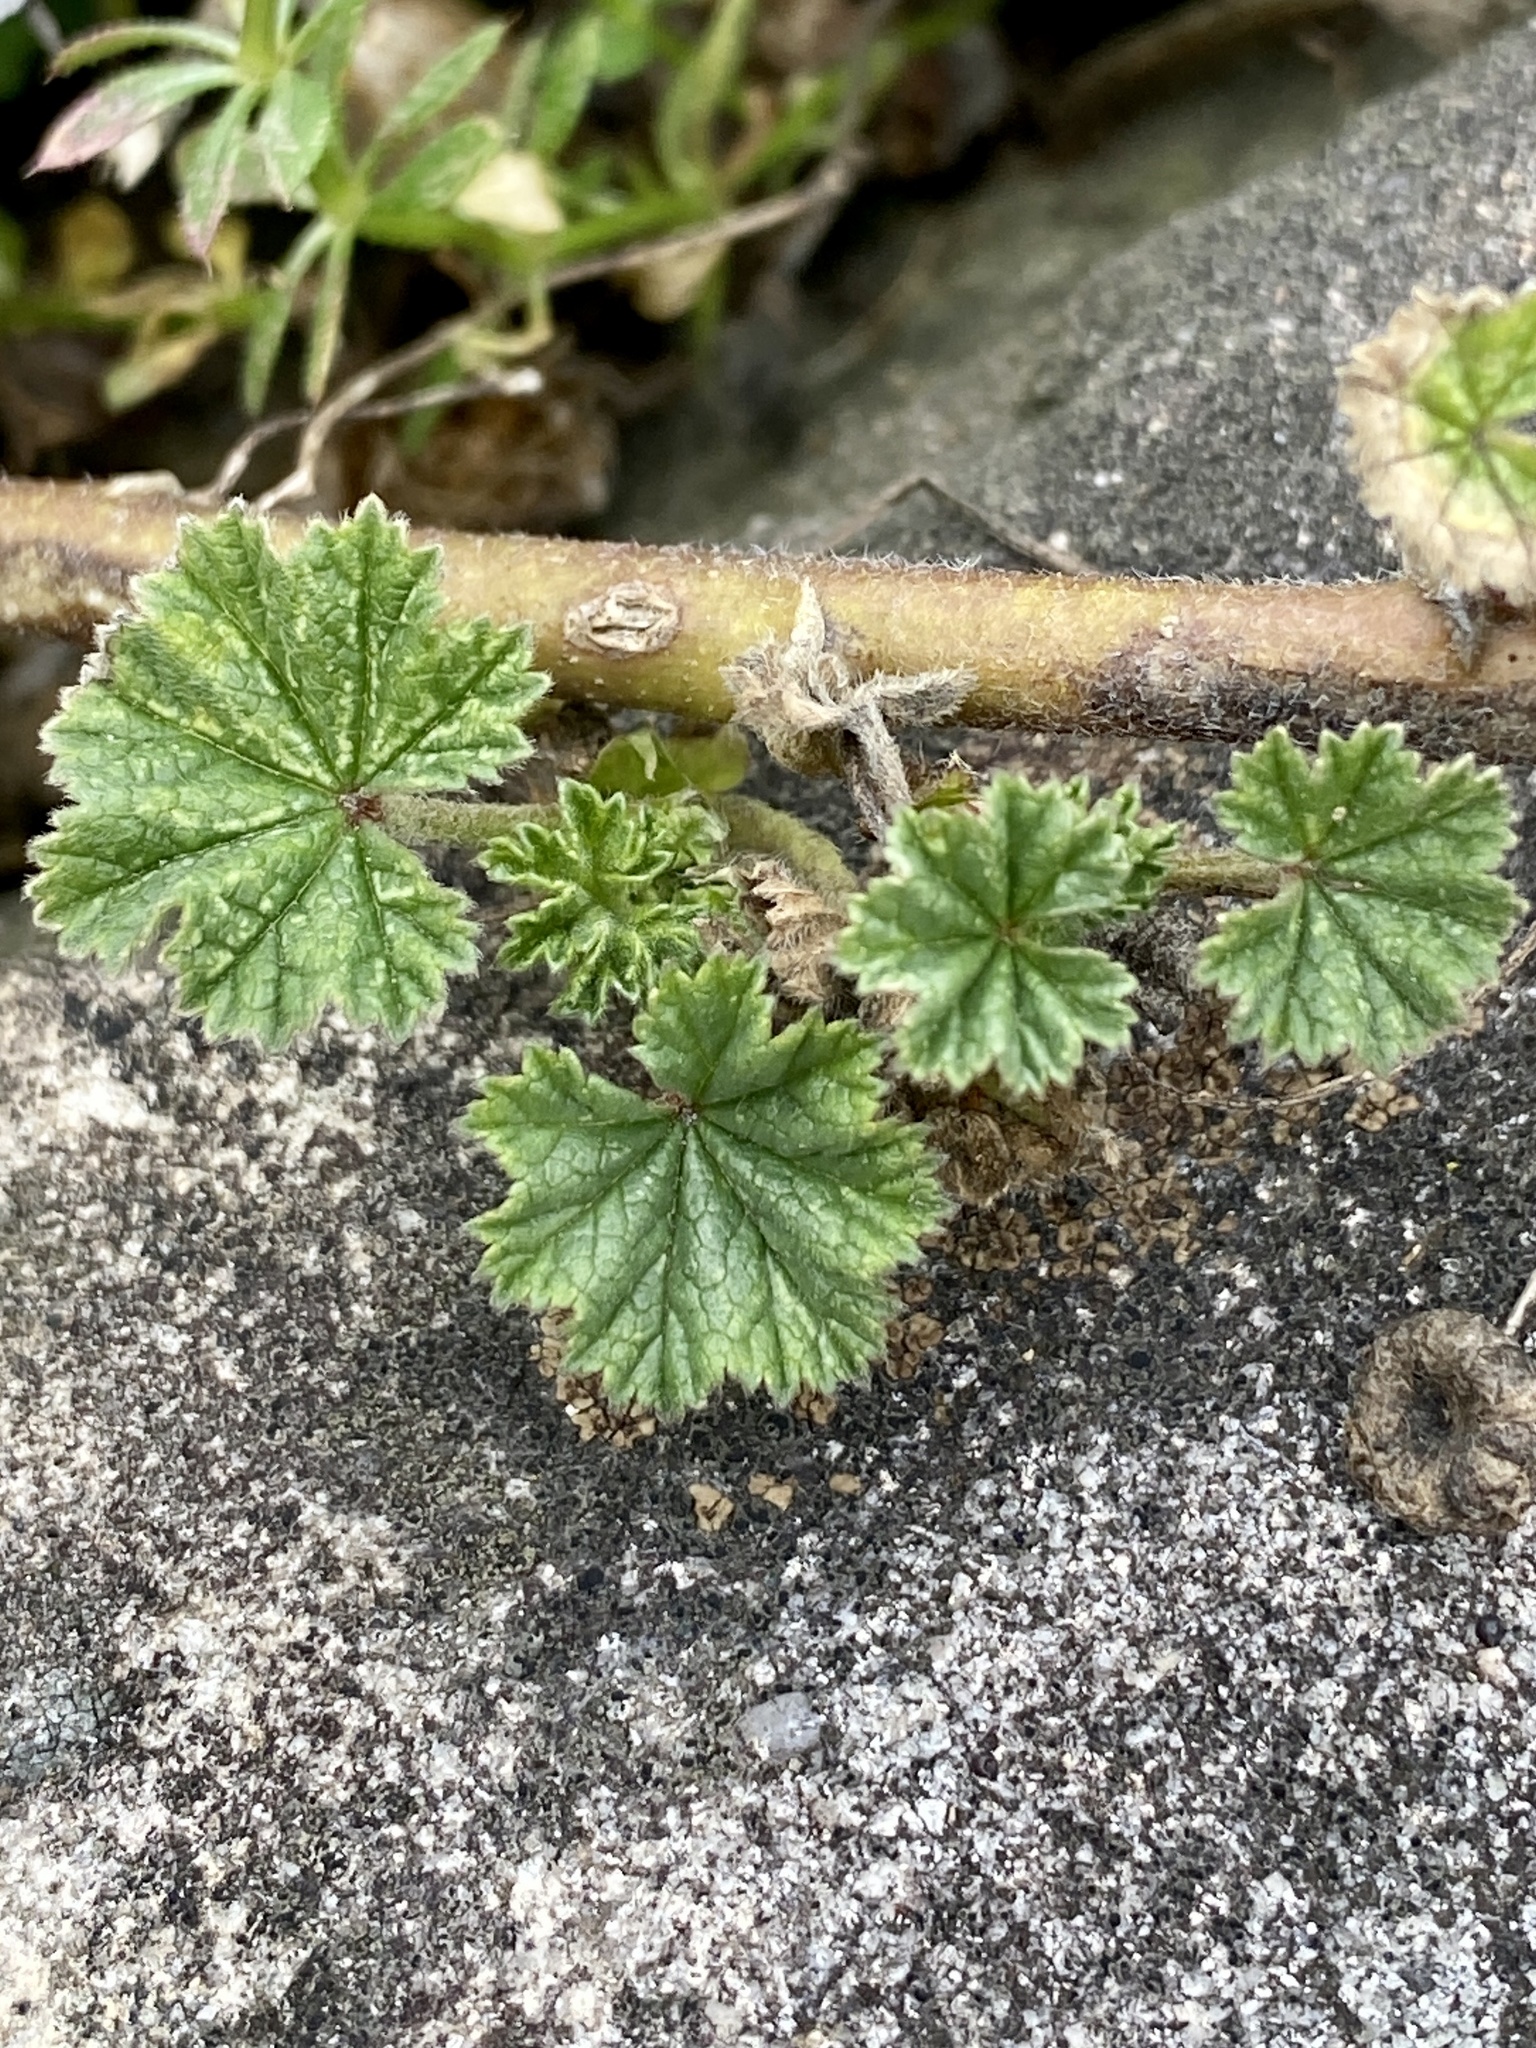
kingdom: Plantae
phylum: Tracheophyta
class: Magnoliopsida
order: Malvales
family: Malvaceae
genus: Malva
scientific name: Malva neglecta
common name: Common mallow
